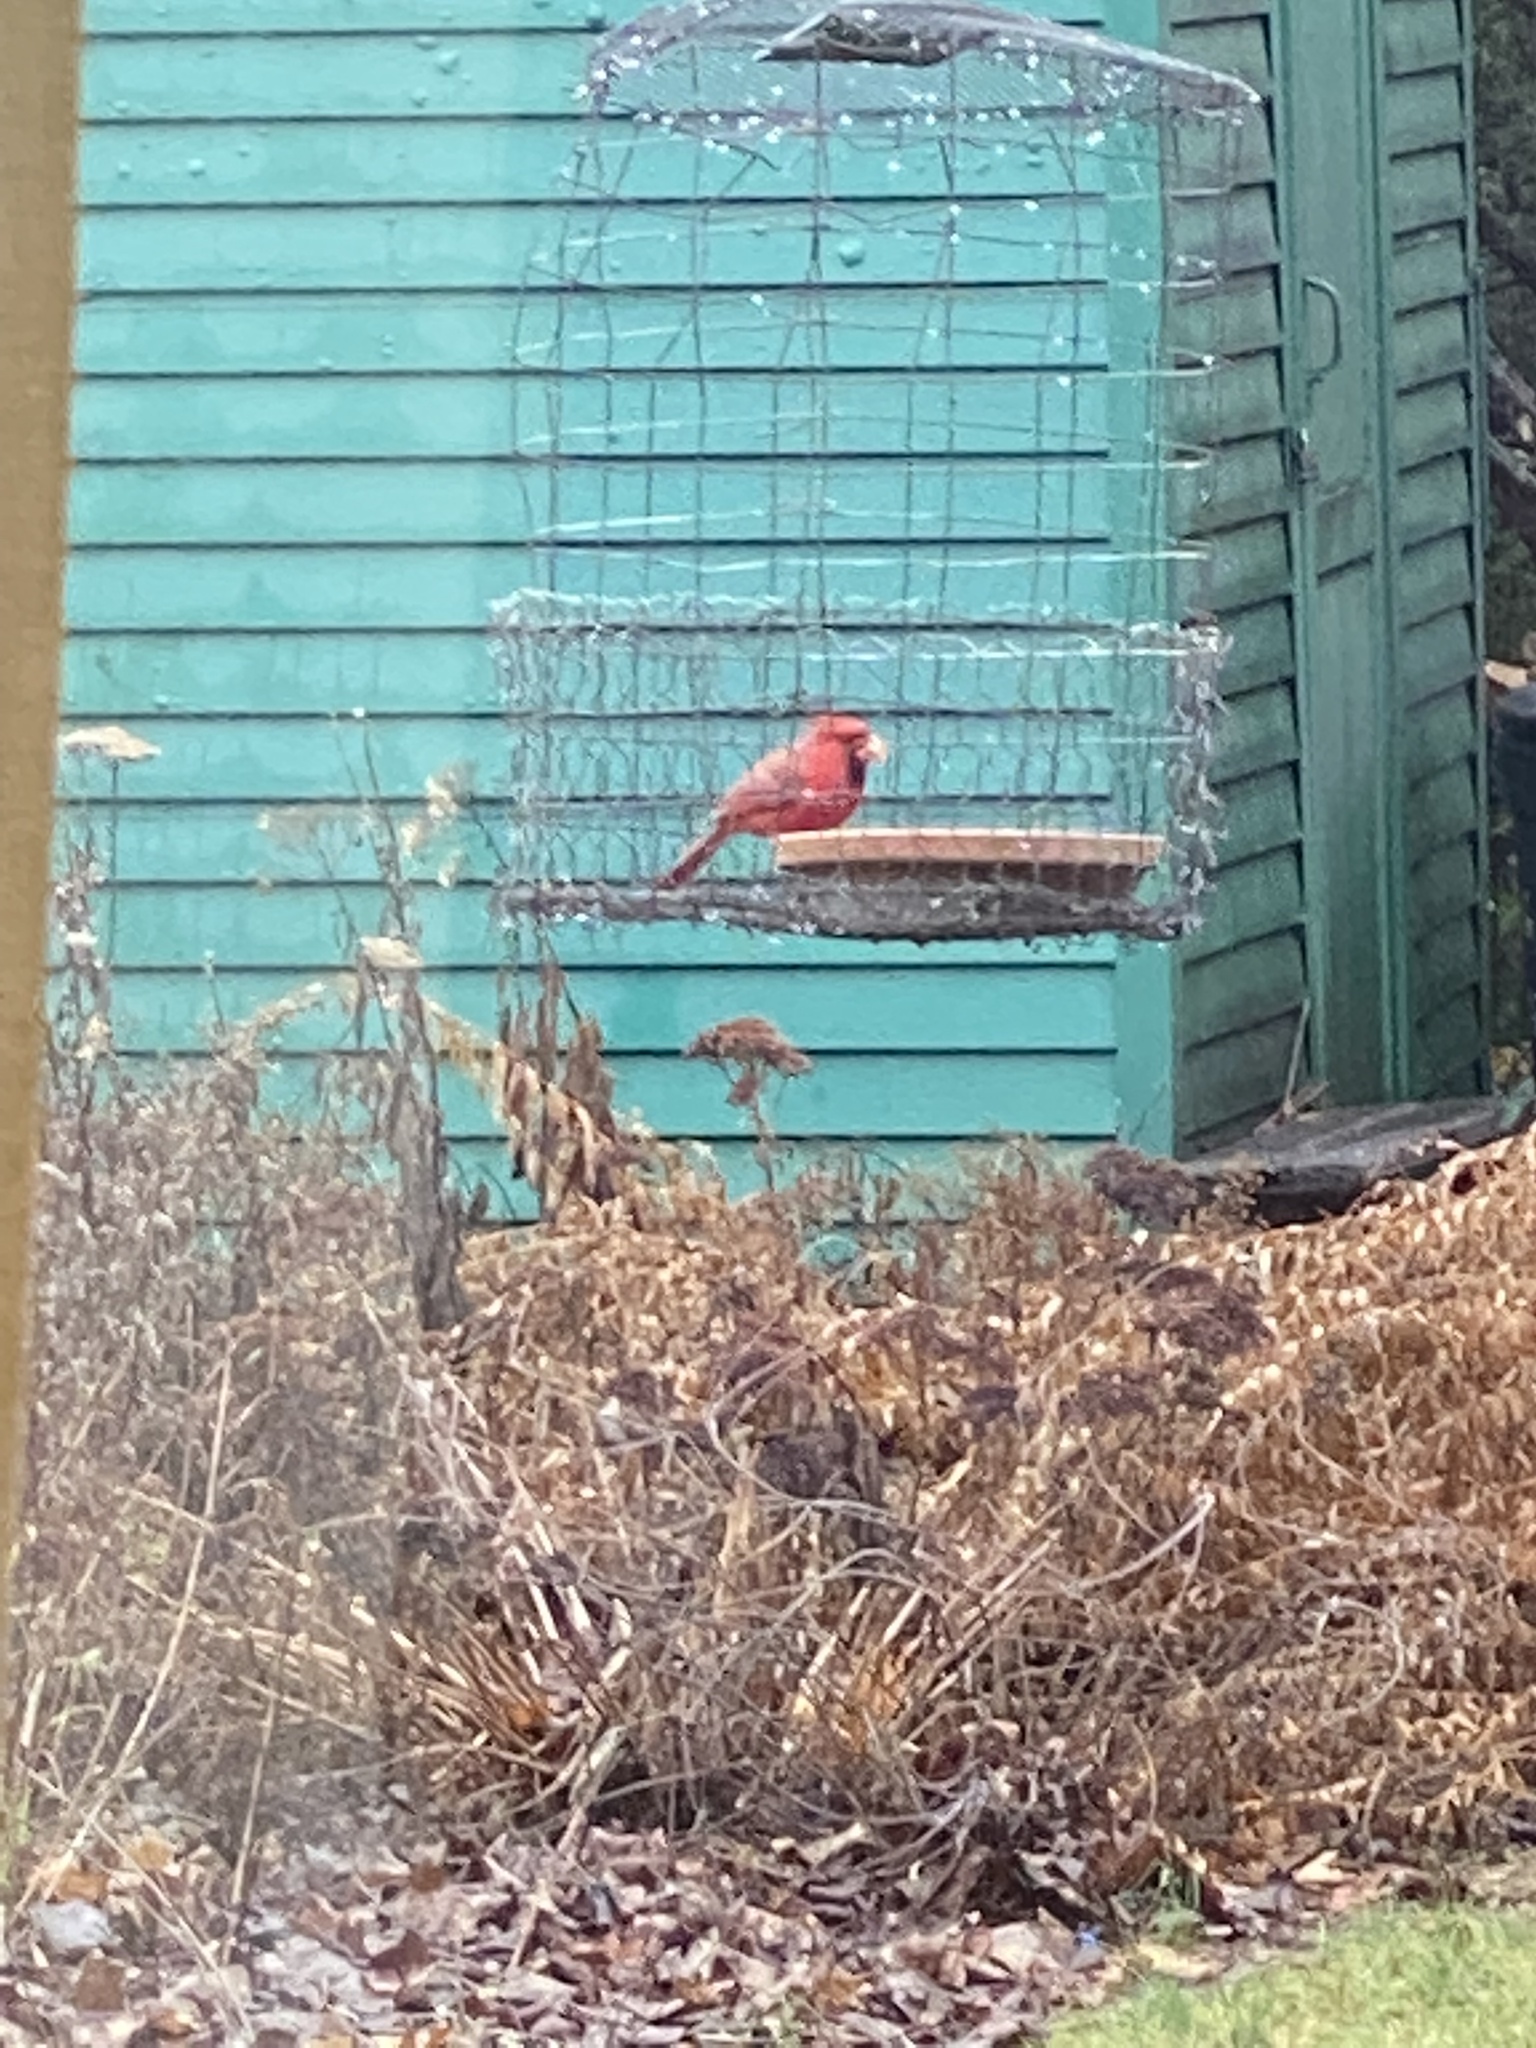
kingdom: Animalia
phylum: Chordata
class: Aves
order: Passeriformes
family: Cardinalidae
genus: Cardinalis
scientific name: Cardinalis cardinalis
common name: Northern cardinal
